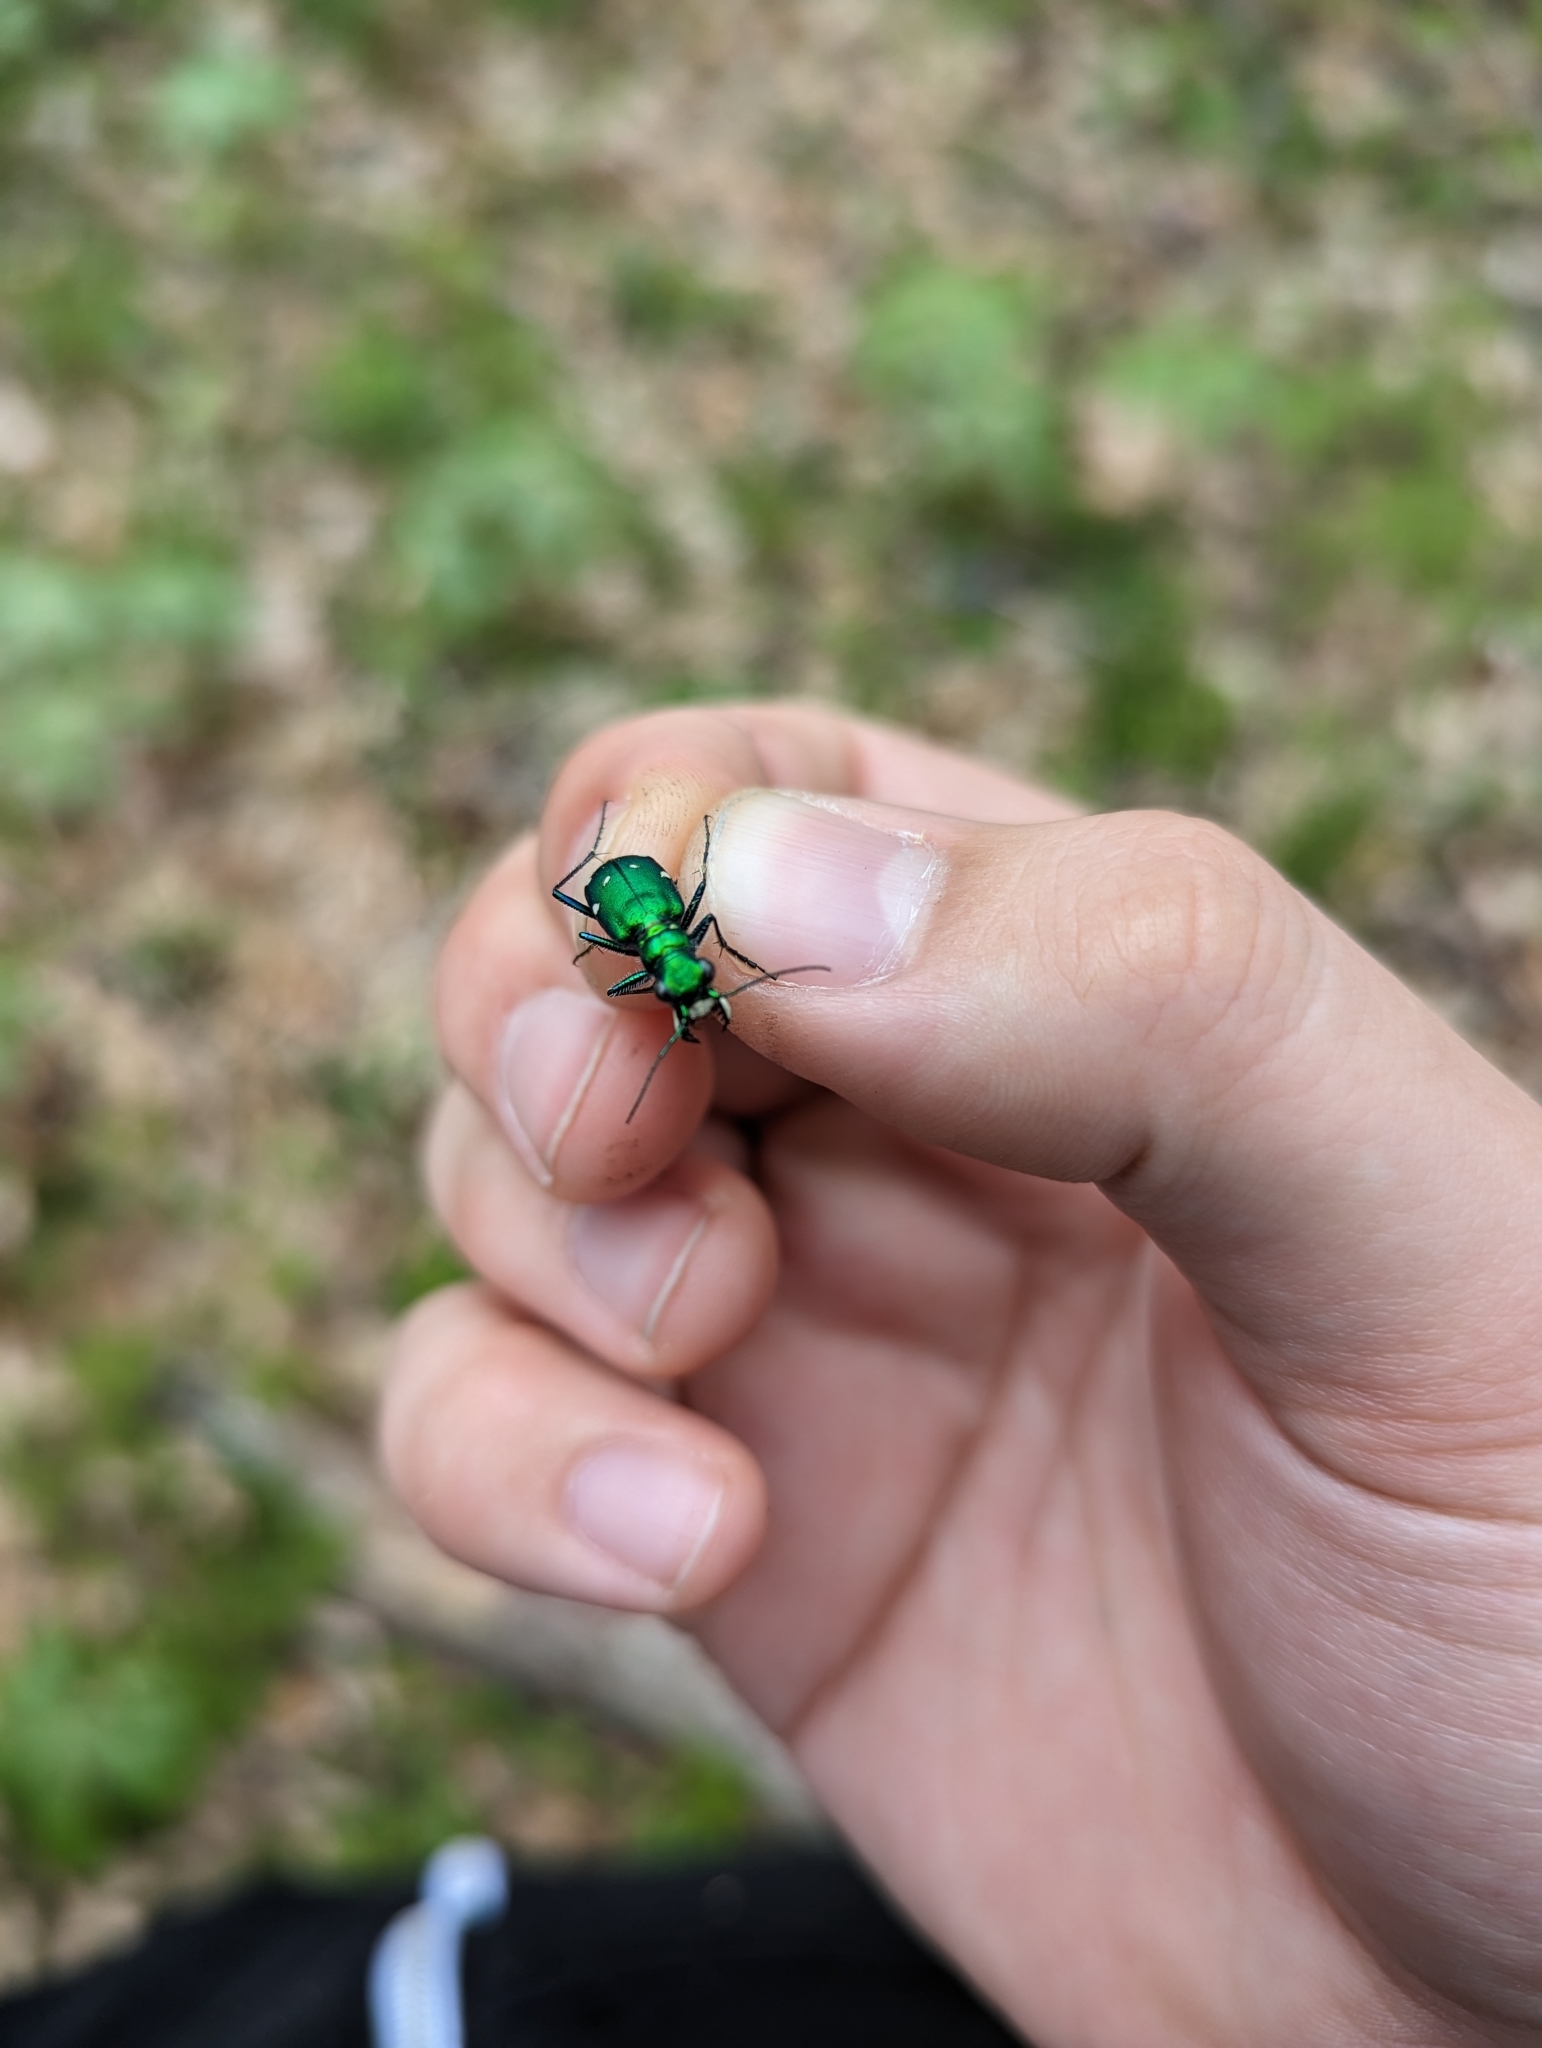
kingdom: Animalia
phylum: Arthropoda
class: Insecta
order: Coleoptera
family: Carabidae
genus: Cicindela
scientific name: Cicindela sexguttata
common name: Six-spotted tiger beetle
